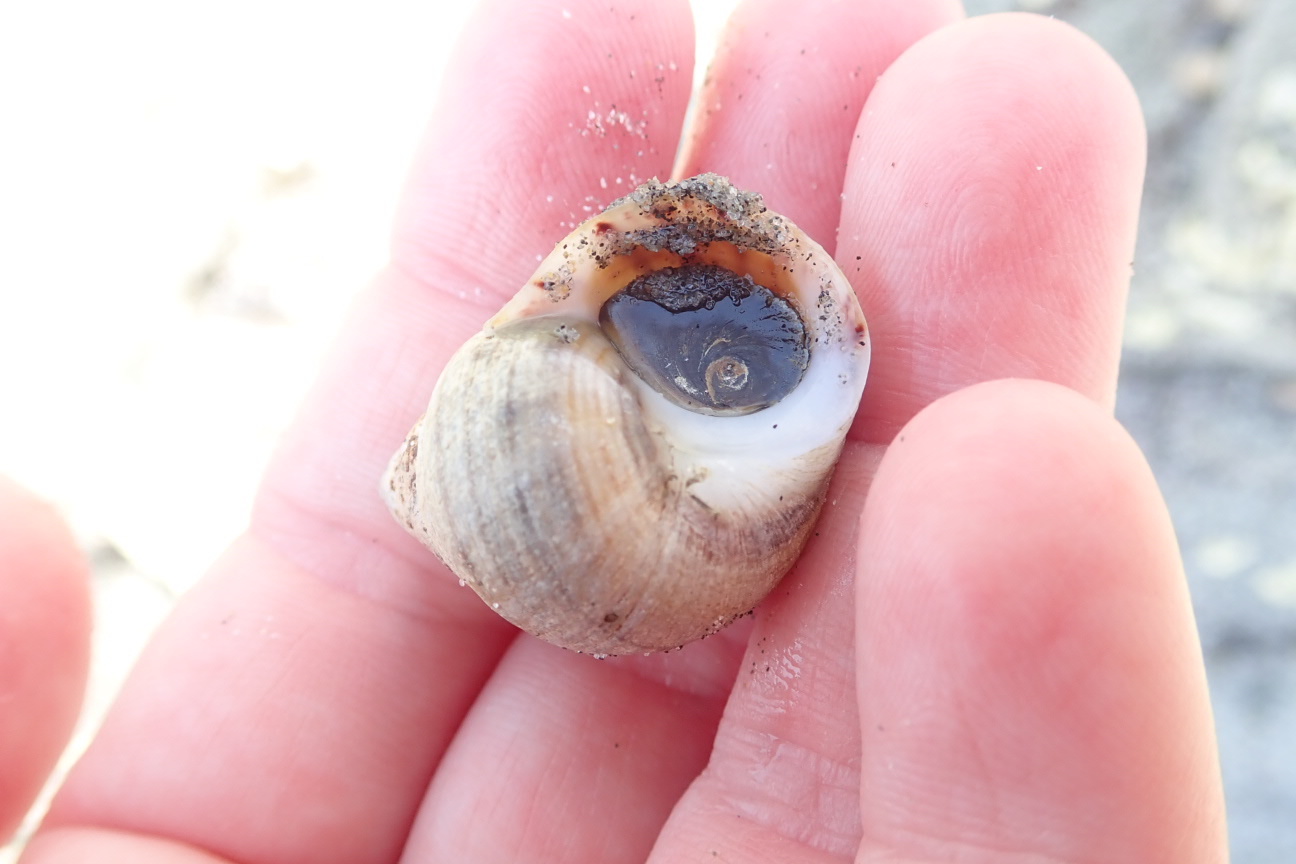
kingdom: Animalia
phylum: Mollusca
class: Gastropoda
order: Littorinimorpha
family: Littorinidae
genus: Littorina
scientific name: Littorina littorea
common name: Common periwinkle
